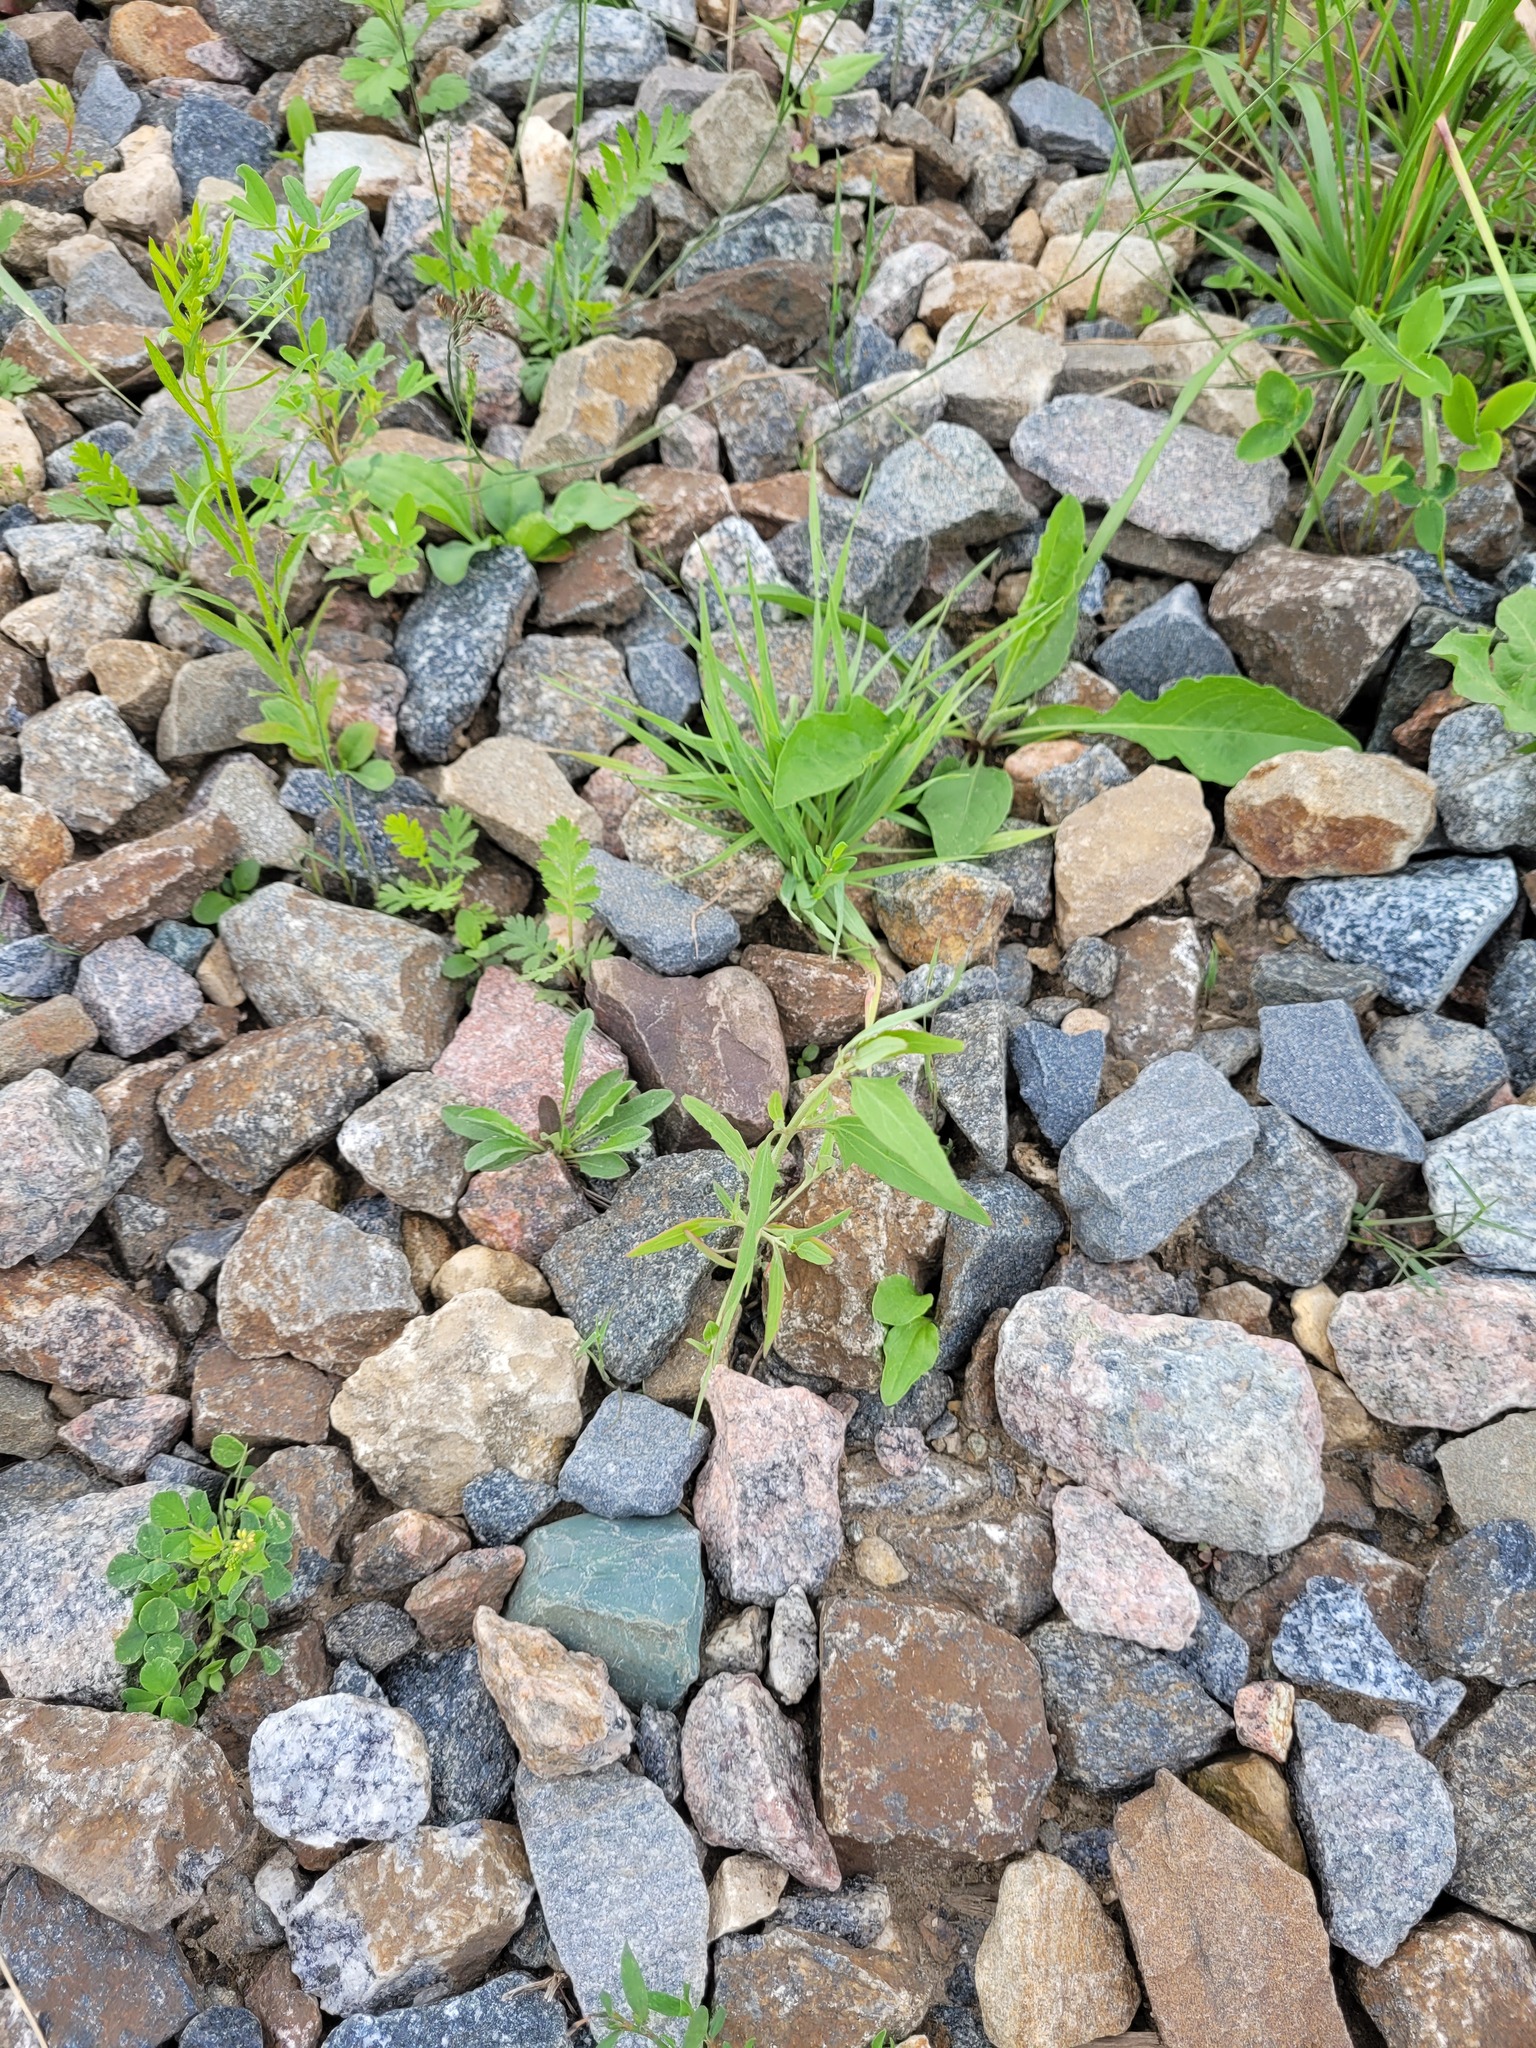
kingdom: Plantae
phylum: Tracheophyta
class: Magnoliopsida
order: Caryophyllales
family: Amaranthaceae
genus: Atriplex
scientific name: Atriplex patula
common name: Common orache
